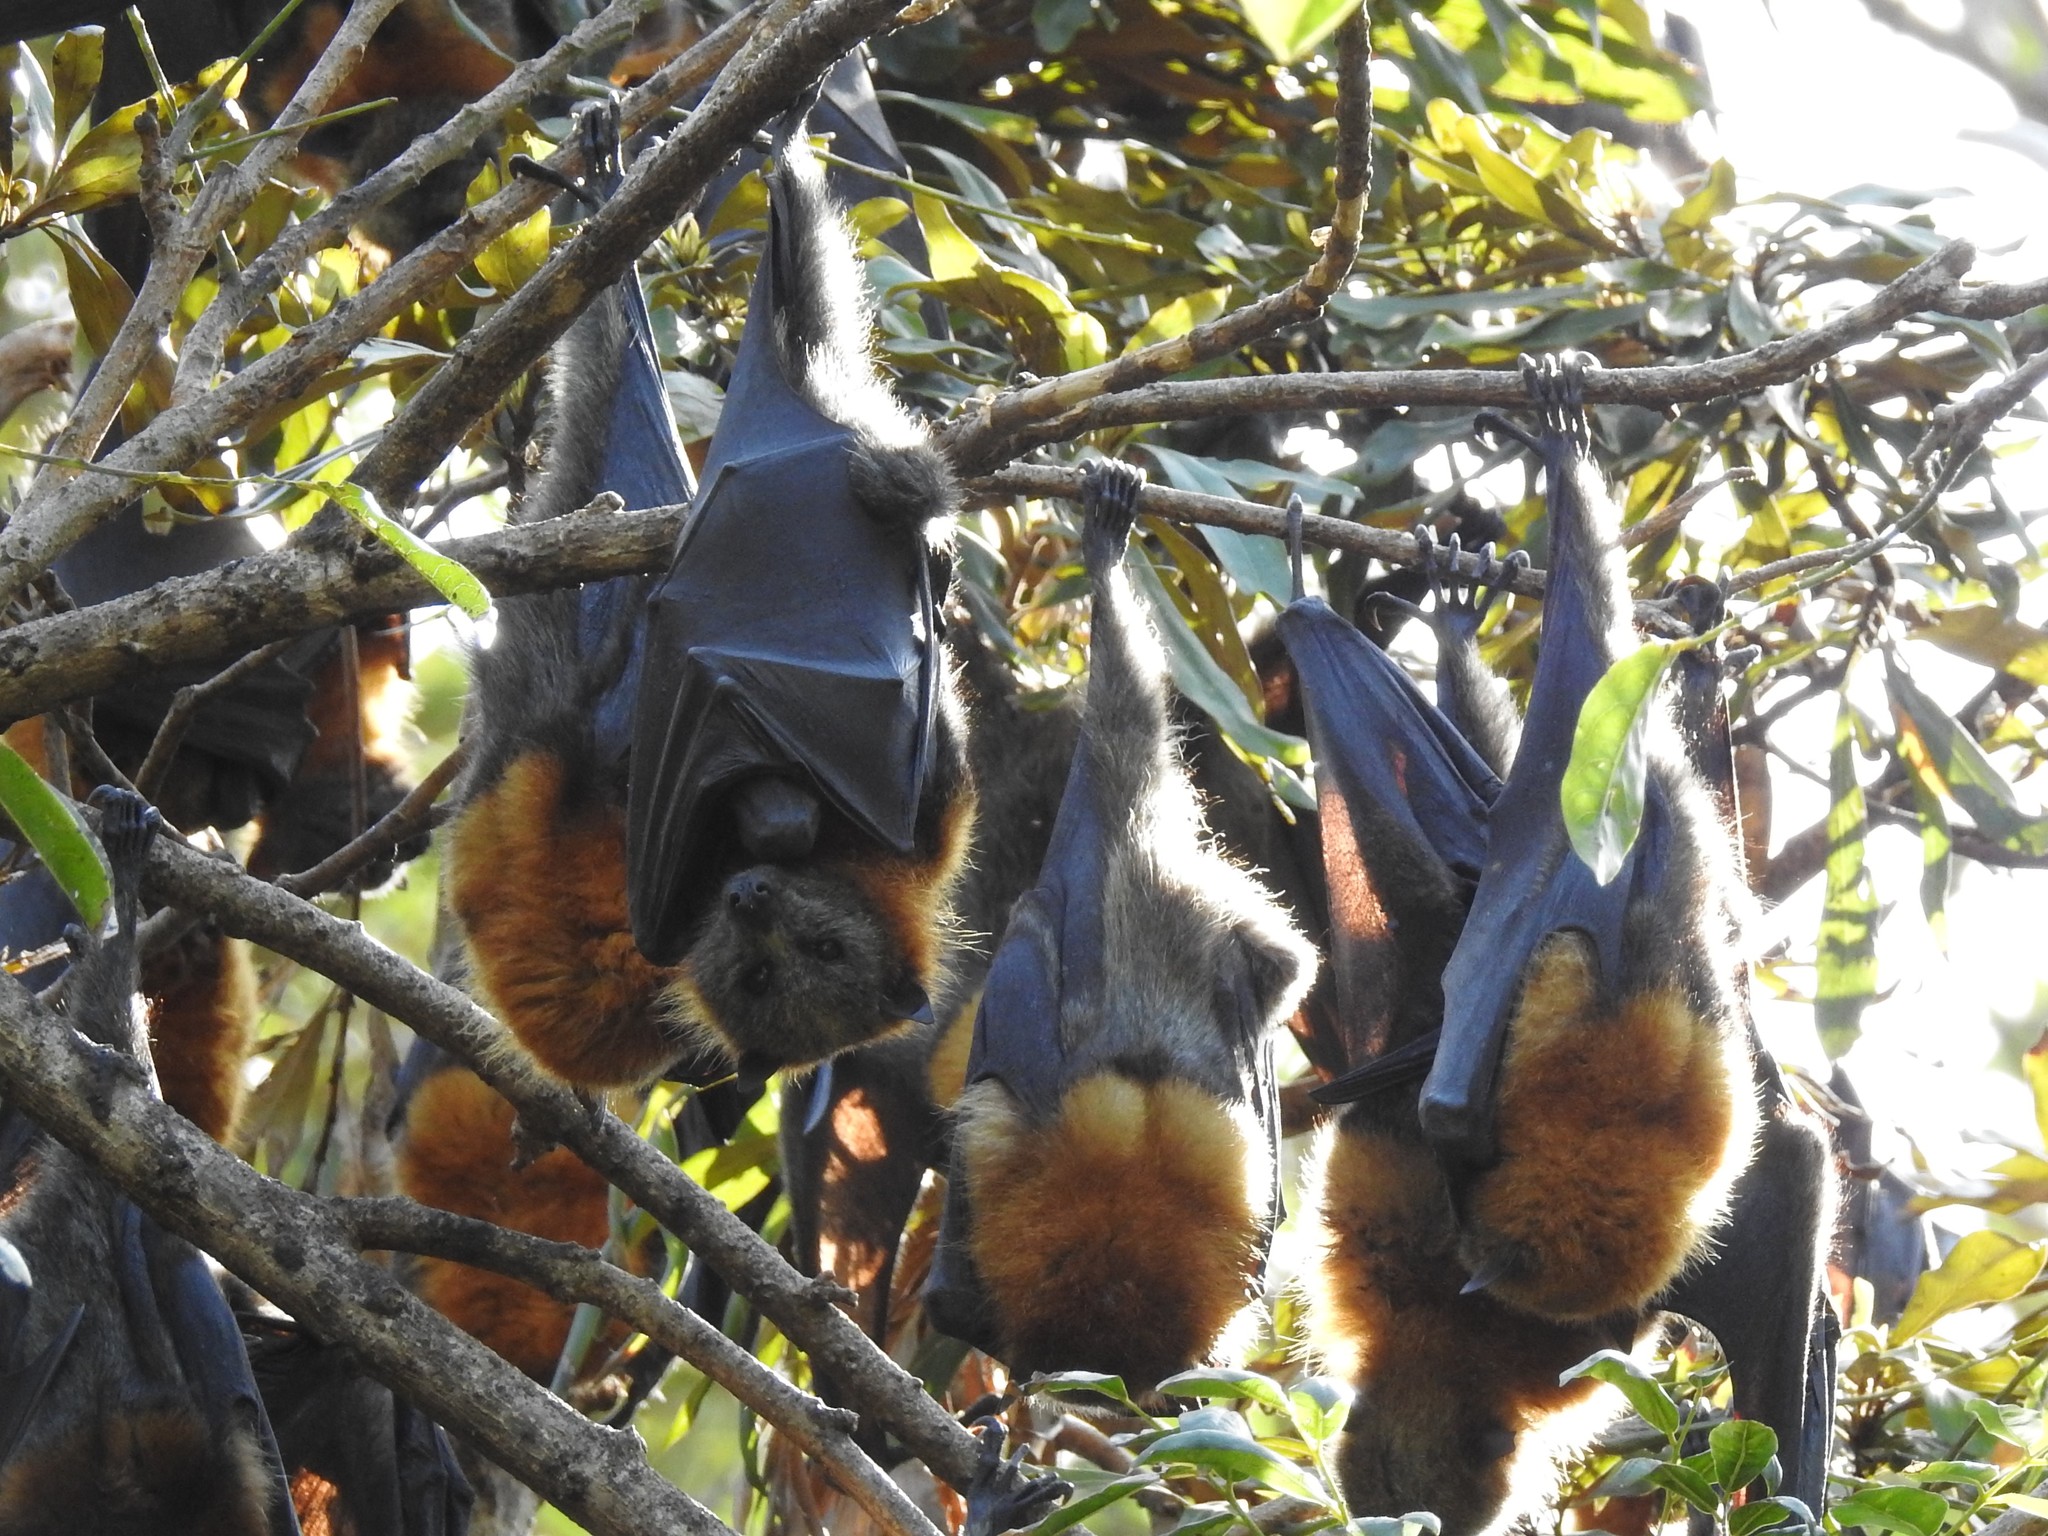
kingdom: Animalia
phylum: Chordata
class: Mammalia
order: Chiroptera
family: Pteropodidae
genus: Pteropus
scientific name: Pteropus poliocephalus
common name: Gray-headed flying fox
